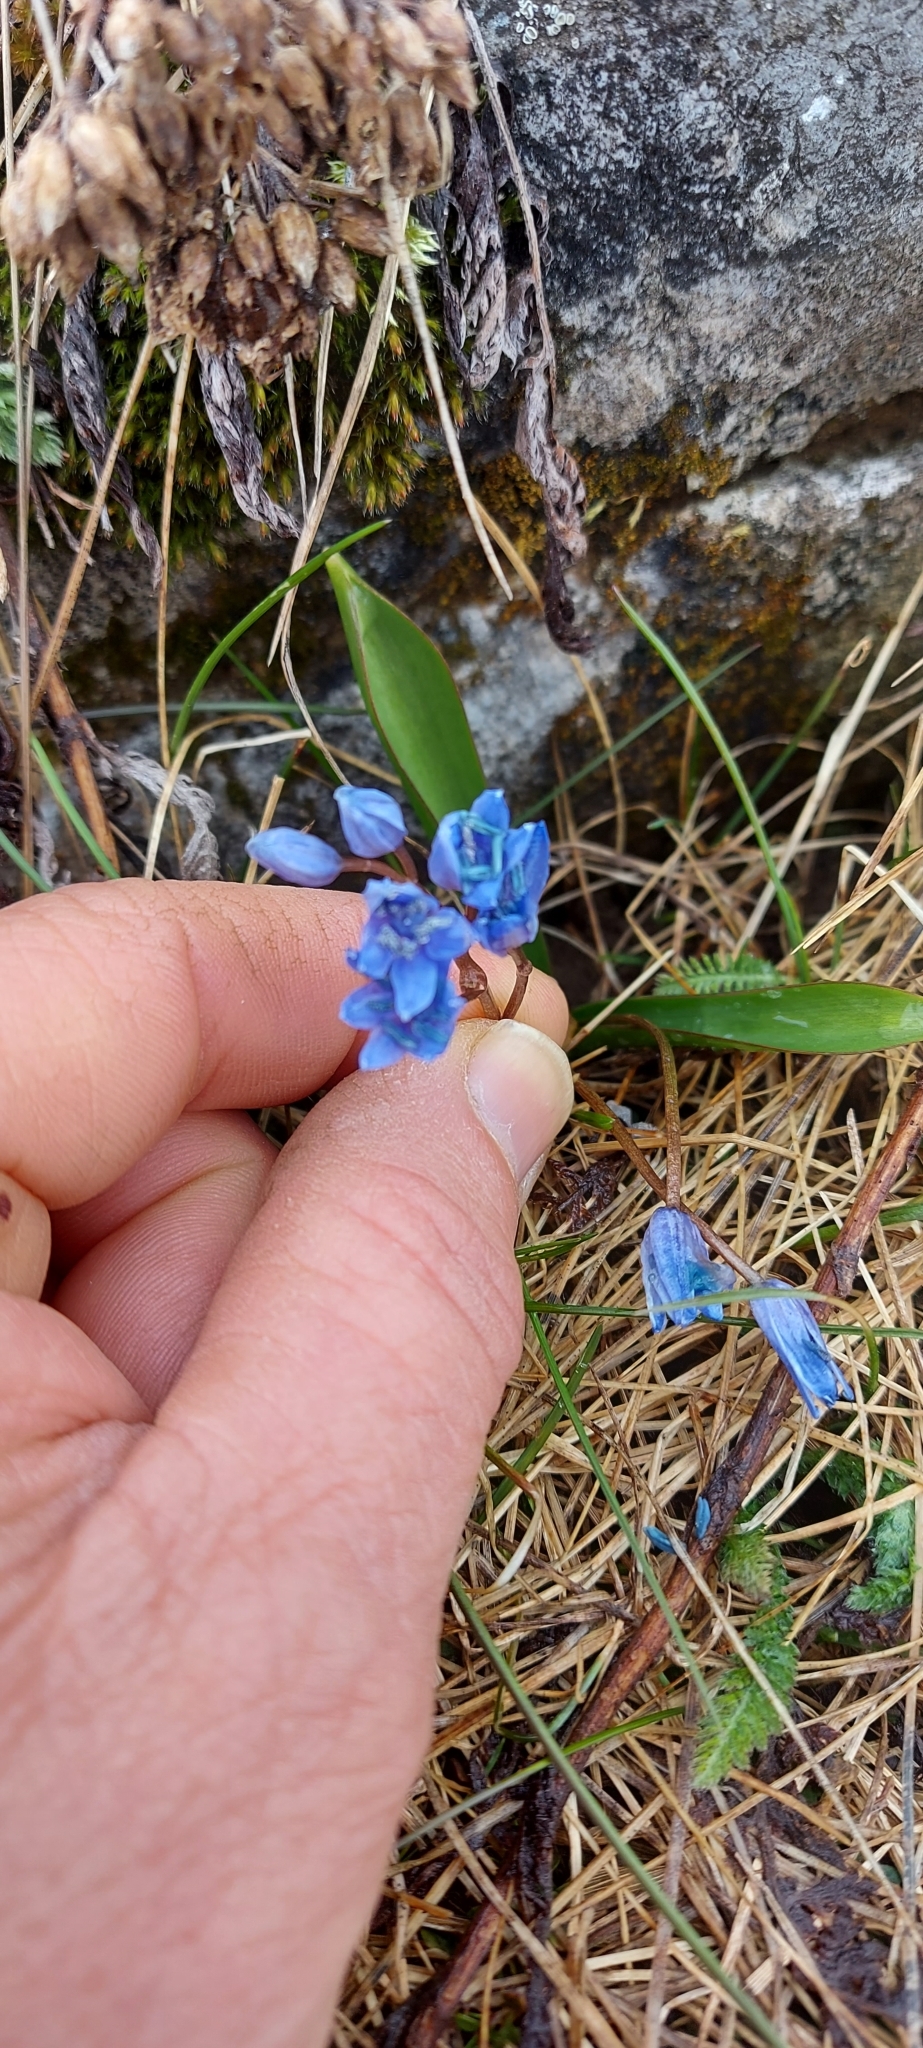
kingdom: Plantae
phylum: Tracheophyta
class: Liliopsida
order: Asparagales
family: Asparagaceae
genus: Scilla
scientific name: Scilla bifolia
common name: Alpine squill
